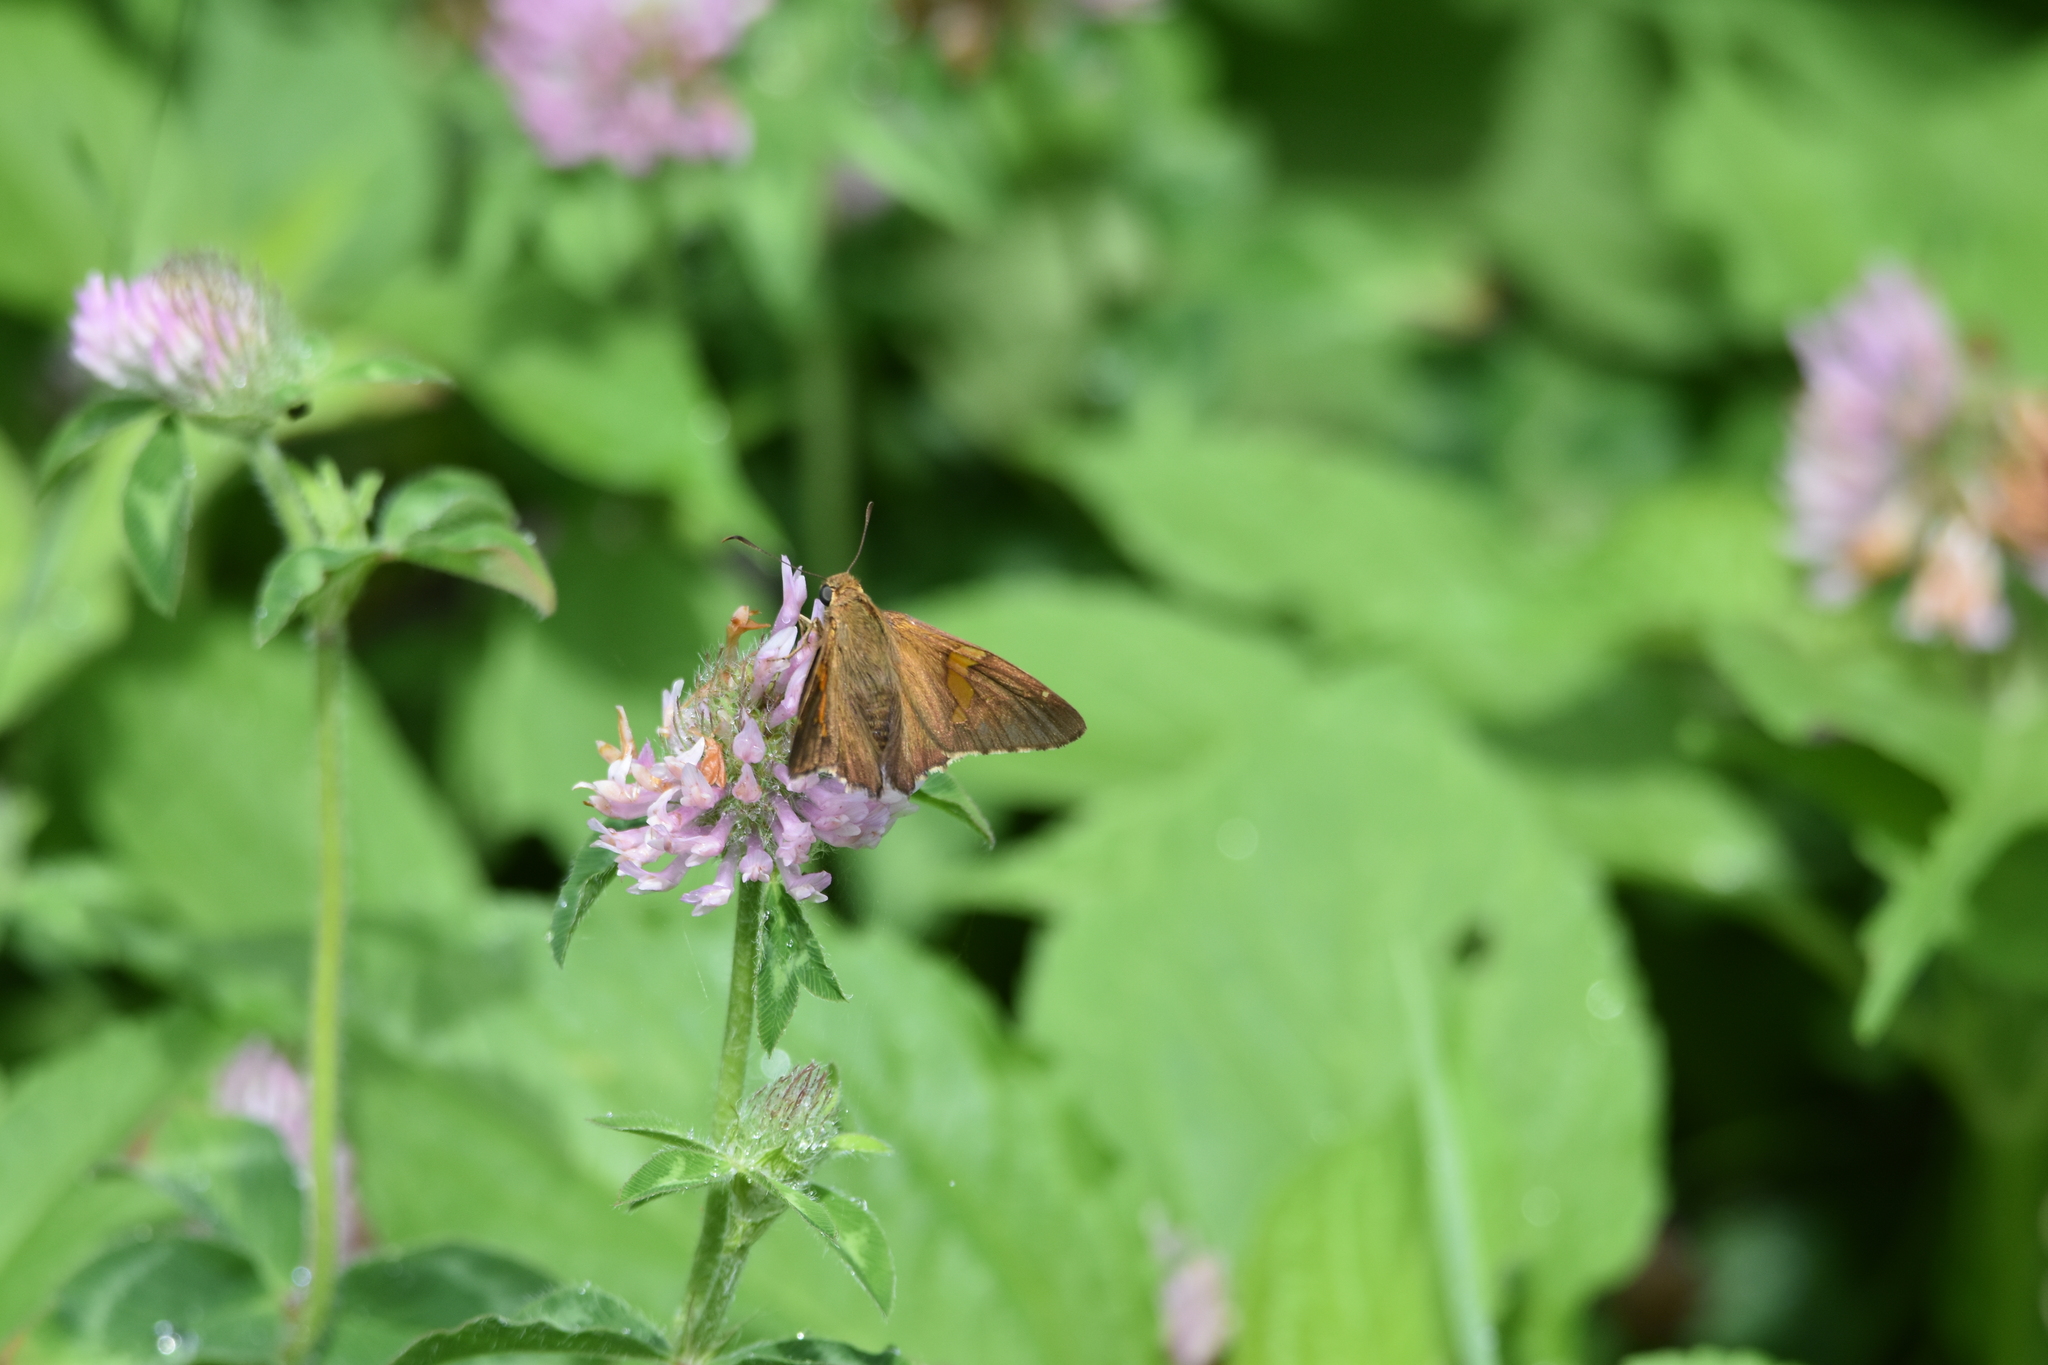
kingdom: Animalia
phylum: Arthropoda
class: Insecta
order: Lepidoptera
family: Hesperiidae
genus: Epargyreus
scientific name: Epargyreus clarus
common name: Silver-spotted skipper
